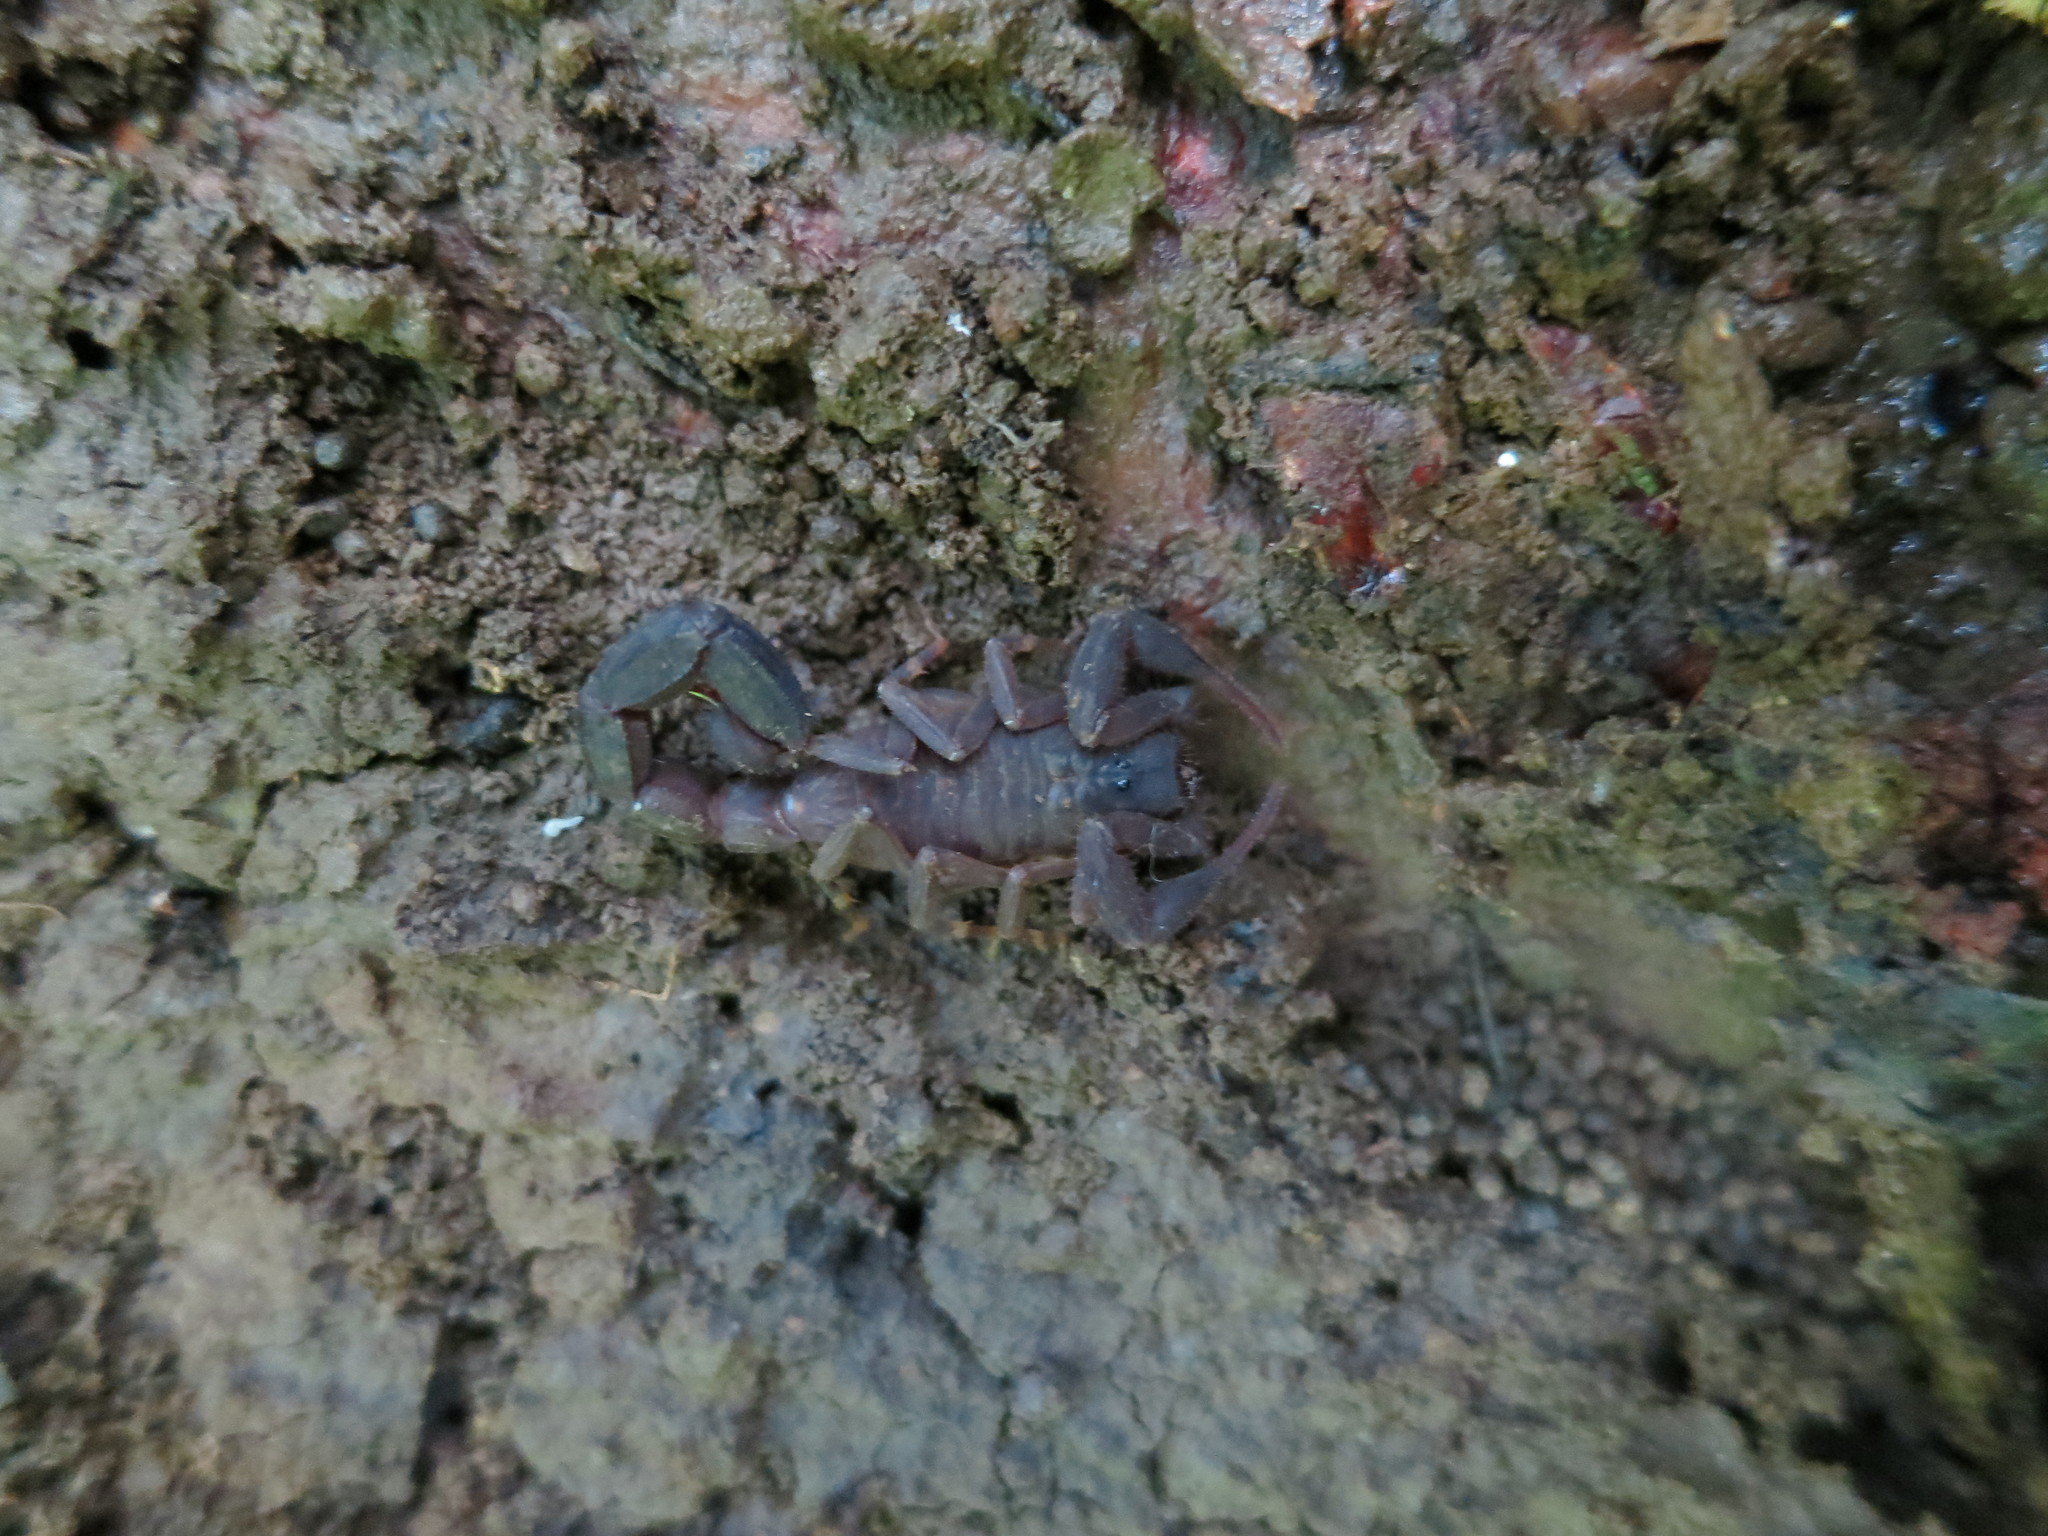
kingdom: Animalia
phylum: Arthropoda
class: Arachnida
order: Scorpiones
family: Buthidae
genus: Teruelius
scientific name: Teruelius ankarana
